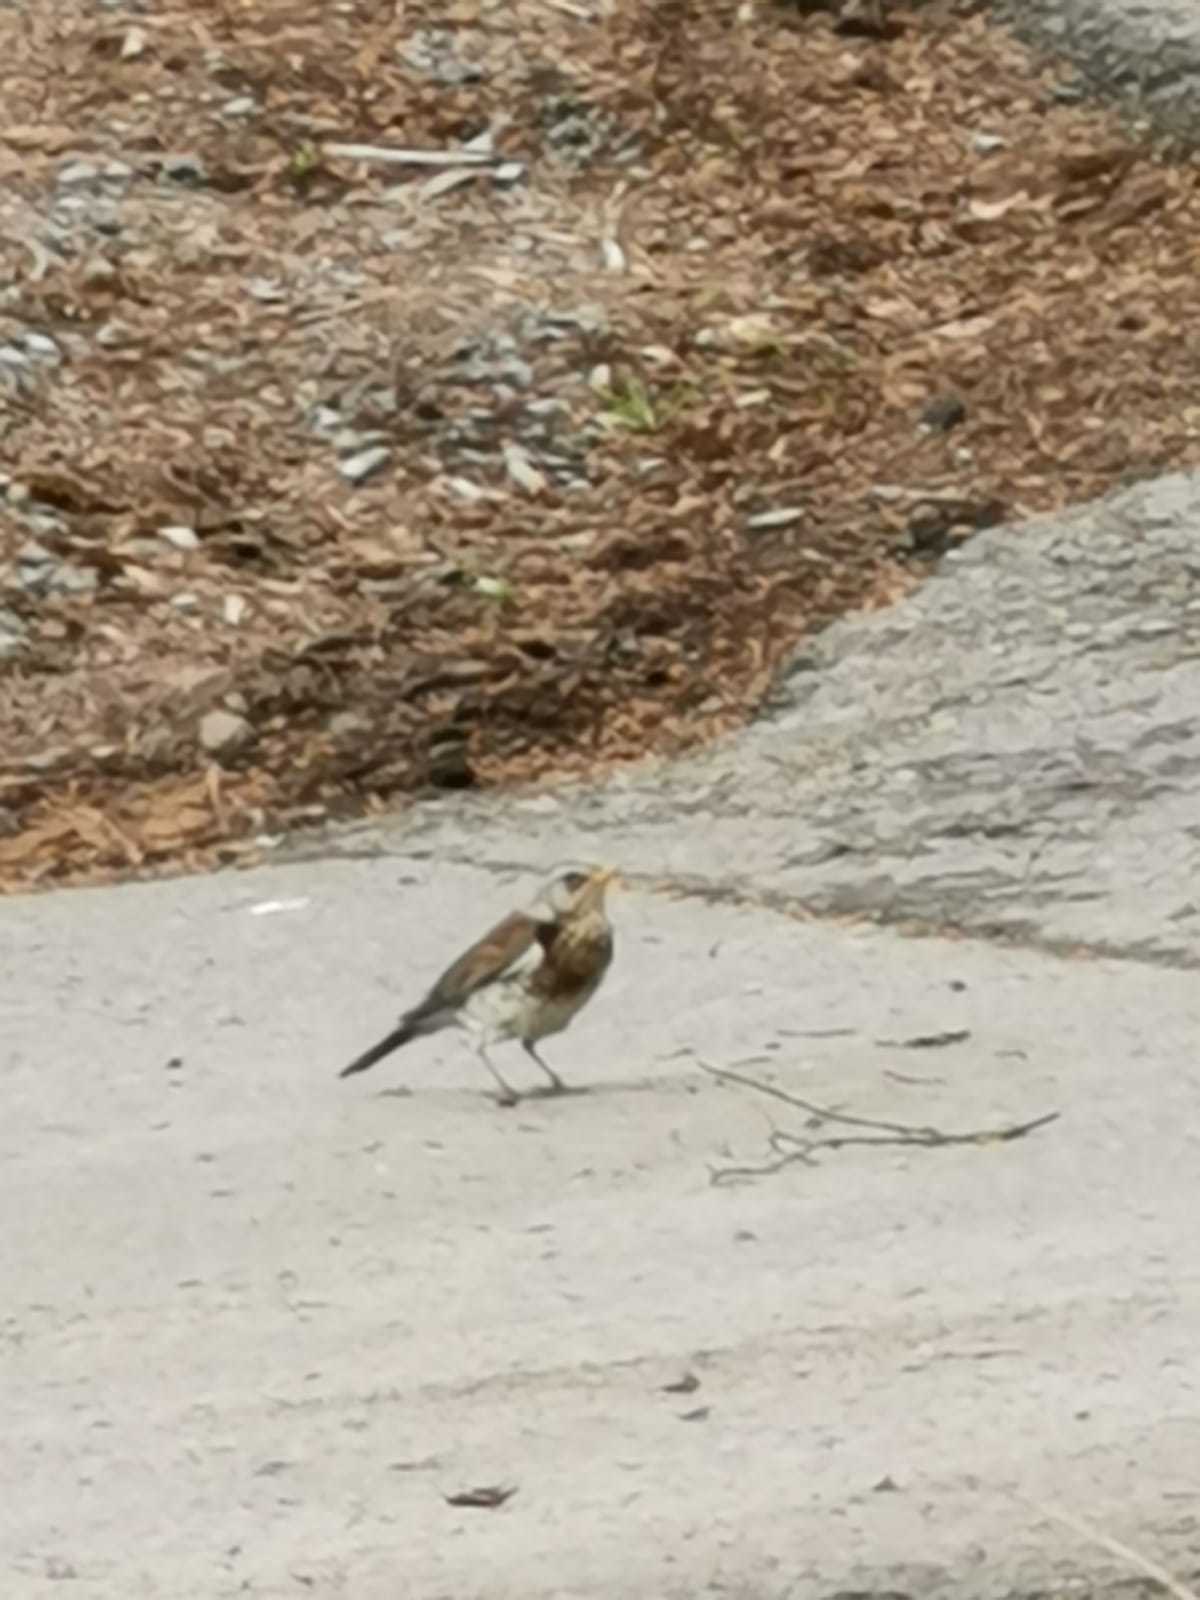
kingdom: Animalia
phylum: Chordata
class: Aves
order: Passeriformes
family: Turdidae
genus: Turdus
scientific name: Turdus pilaris
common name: Fieldfare
